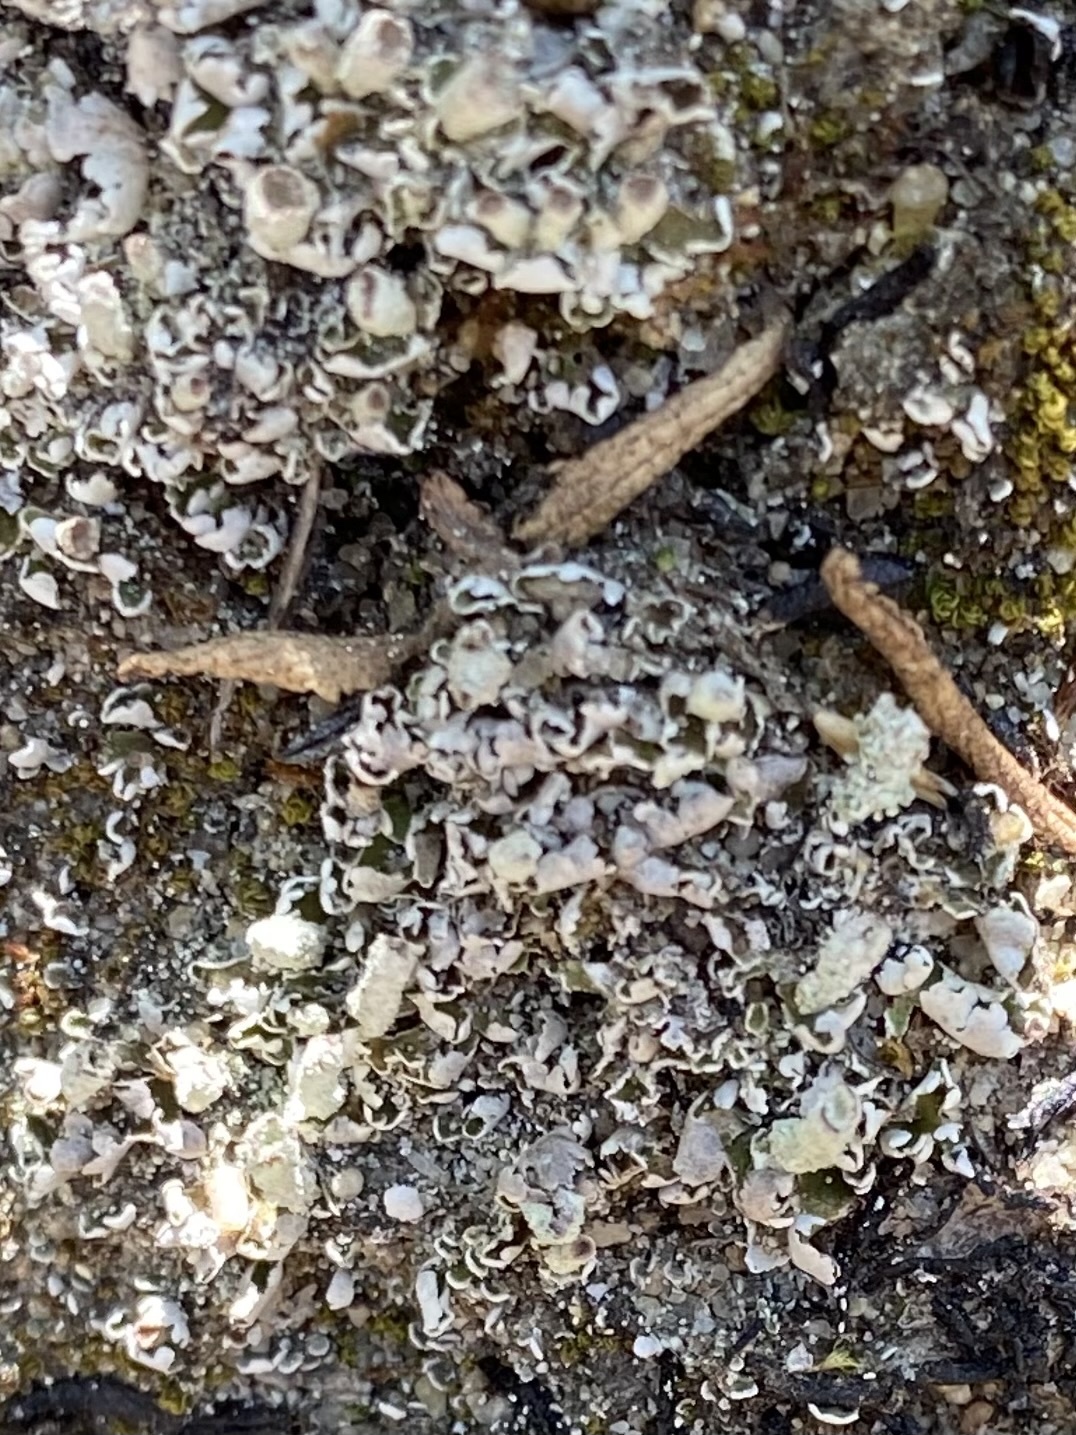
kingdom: Plantae
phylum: Tracheophyta
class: Polypodiopsida
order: Polypodiales
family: Pteridaceae
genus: Pentagramma
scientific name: Pentagramma triangularis
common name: Gold fern
